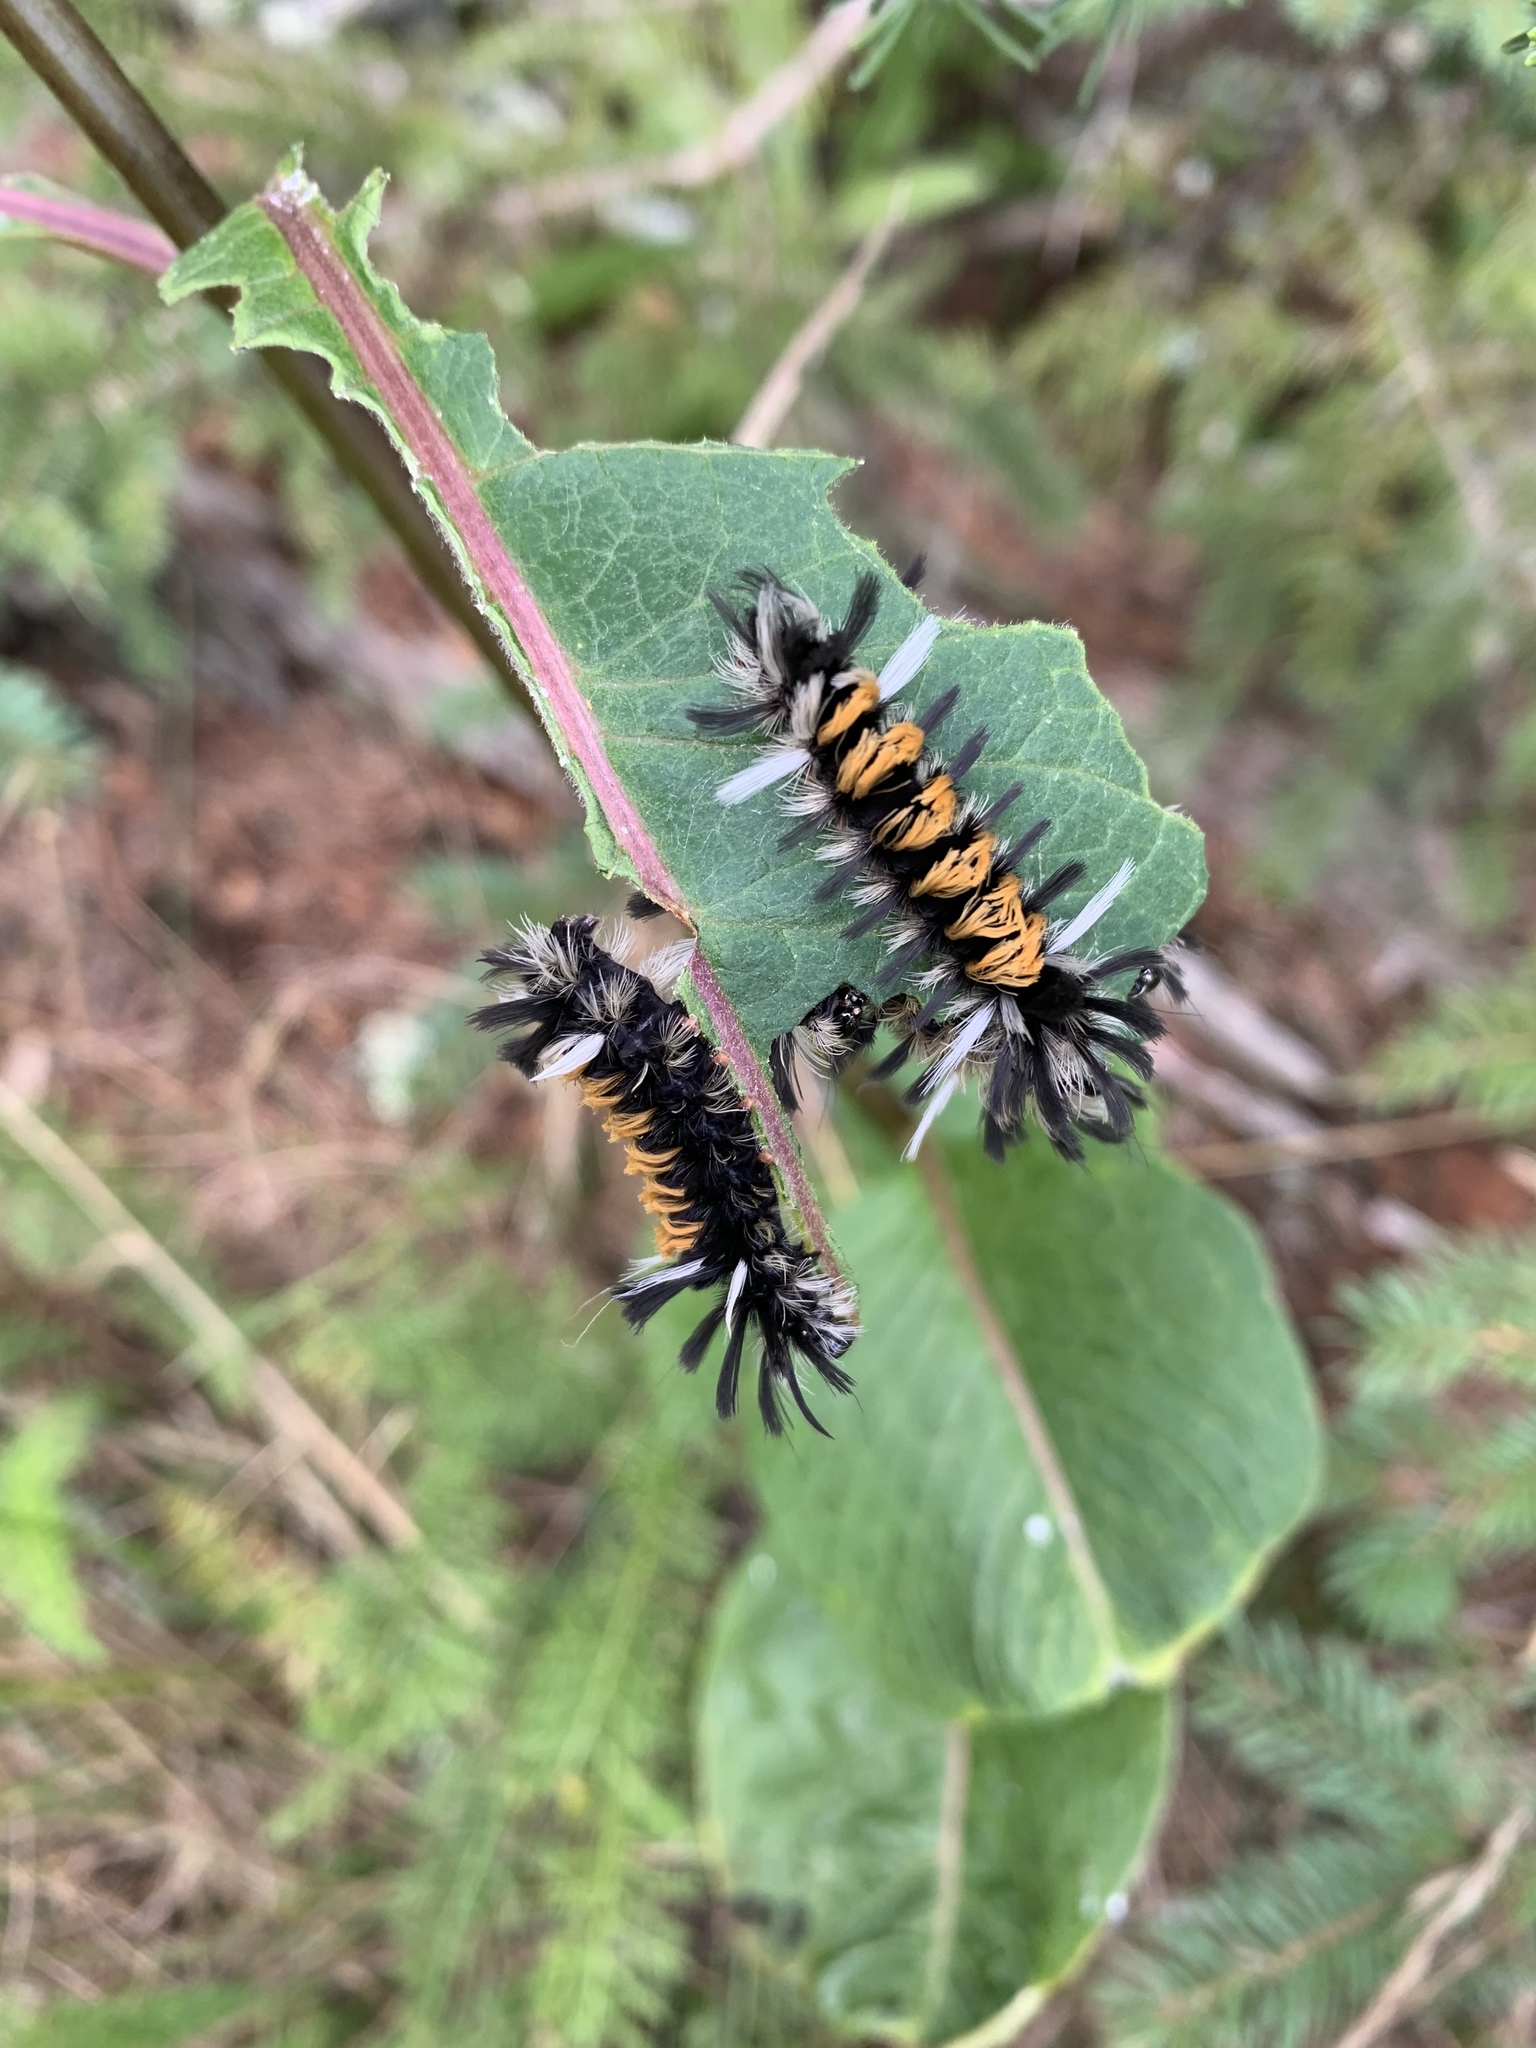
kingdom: Animalia
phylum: Arthropoda
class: Insecta
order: Lepidoptera
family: Erebidae
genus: Euchaetes
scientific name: Euchaetes egle
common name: Milkweed tussock moth
